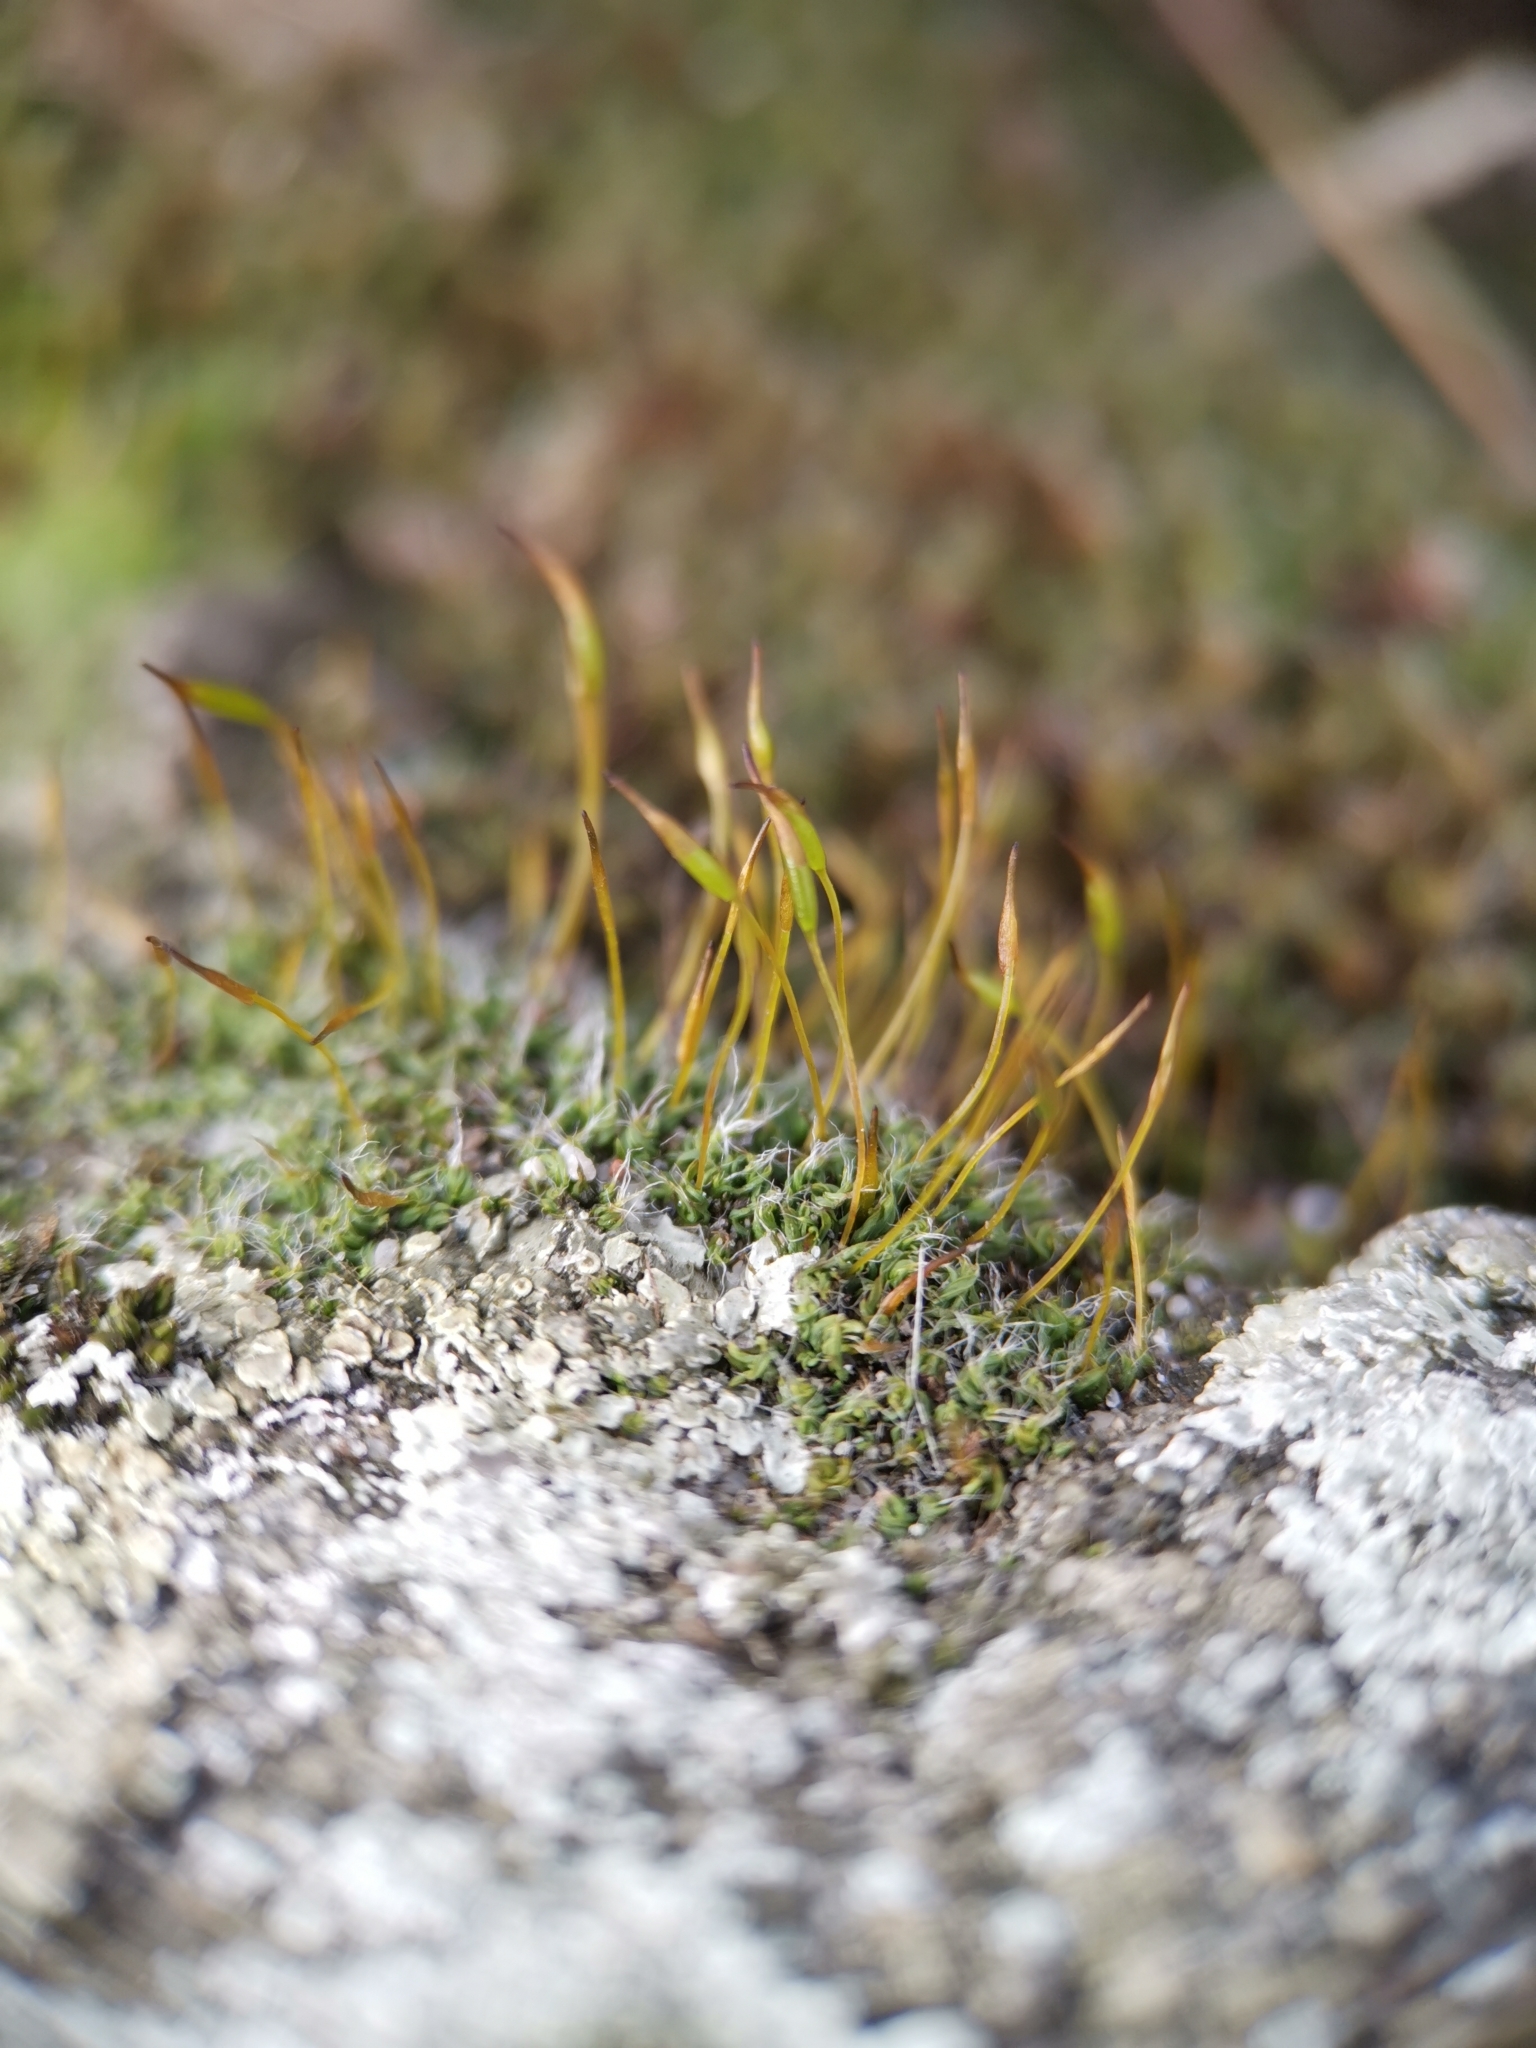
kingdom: Plantae
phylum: Bryophyta
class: Bryopsida
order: Pottiales
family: Pottiaceae
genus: Tortula
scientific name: Tortula muralis
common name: Wall screw-moss
